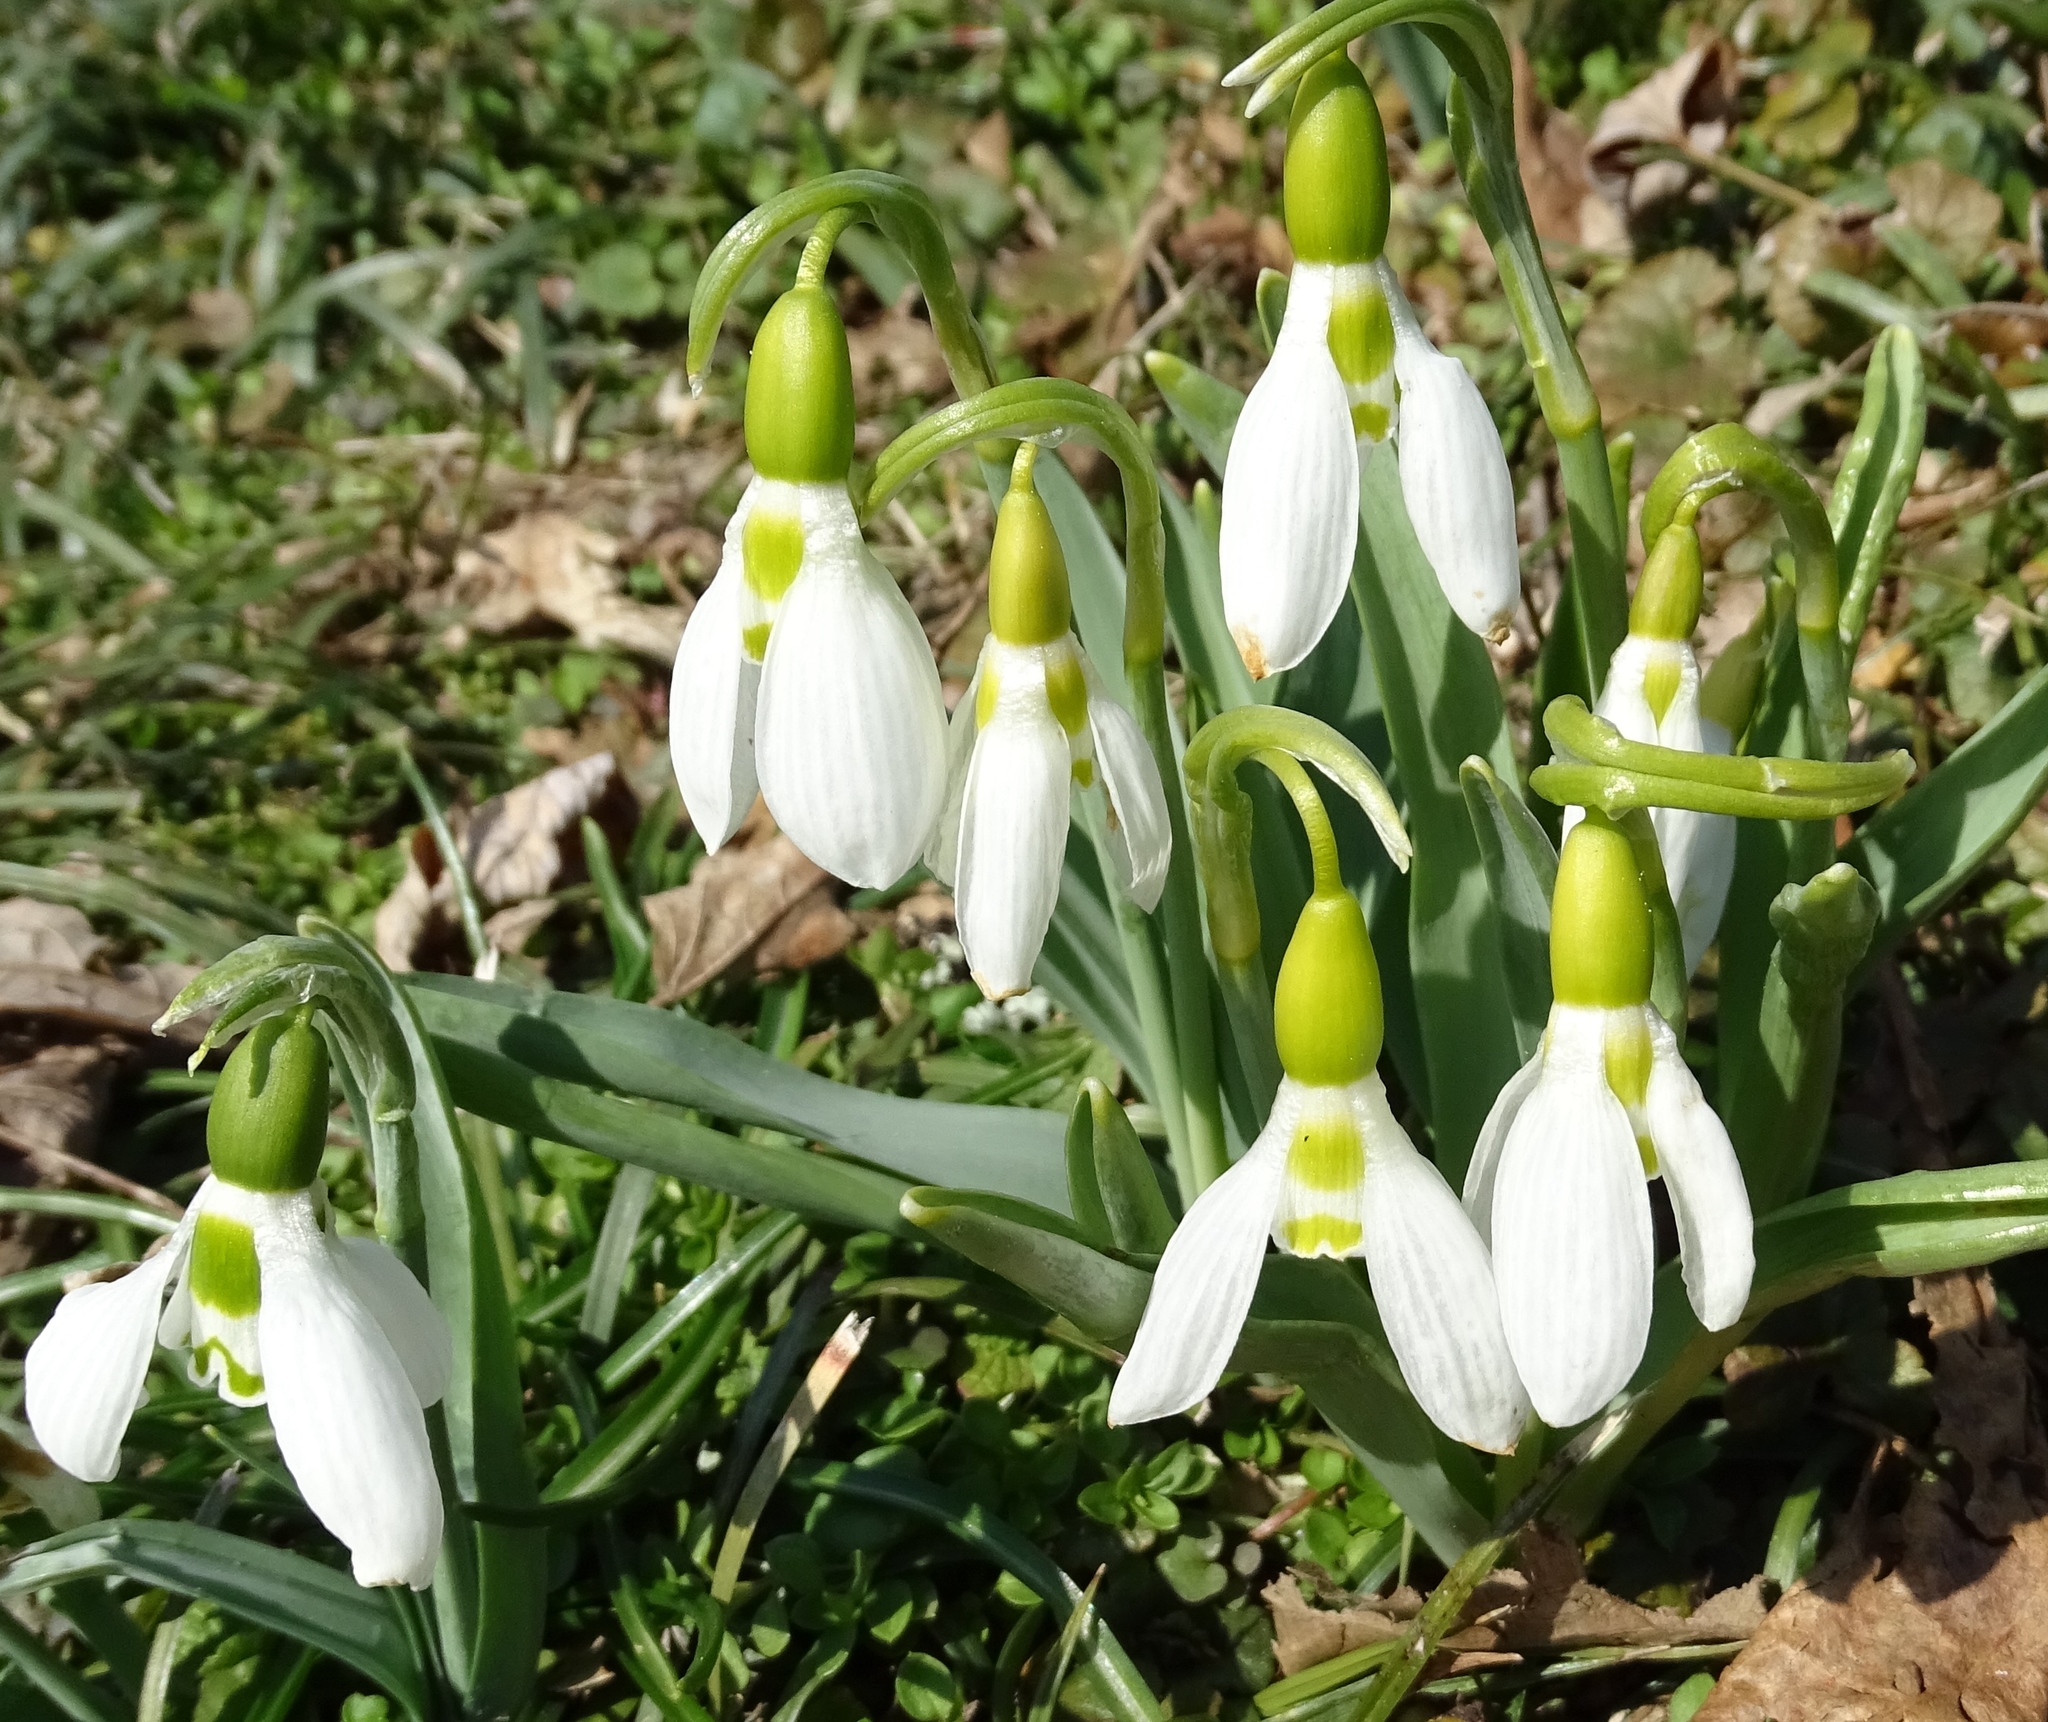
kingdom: Plantae
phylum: Tracheophyta
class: Liliopsida
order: Asparagales
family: Amaryllidaceae
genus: Galanthus
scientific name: Galanthus elwesii
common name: Greater snowdrop
